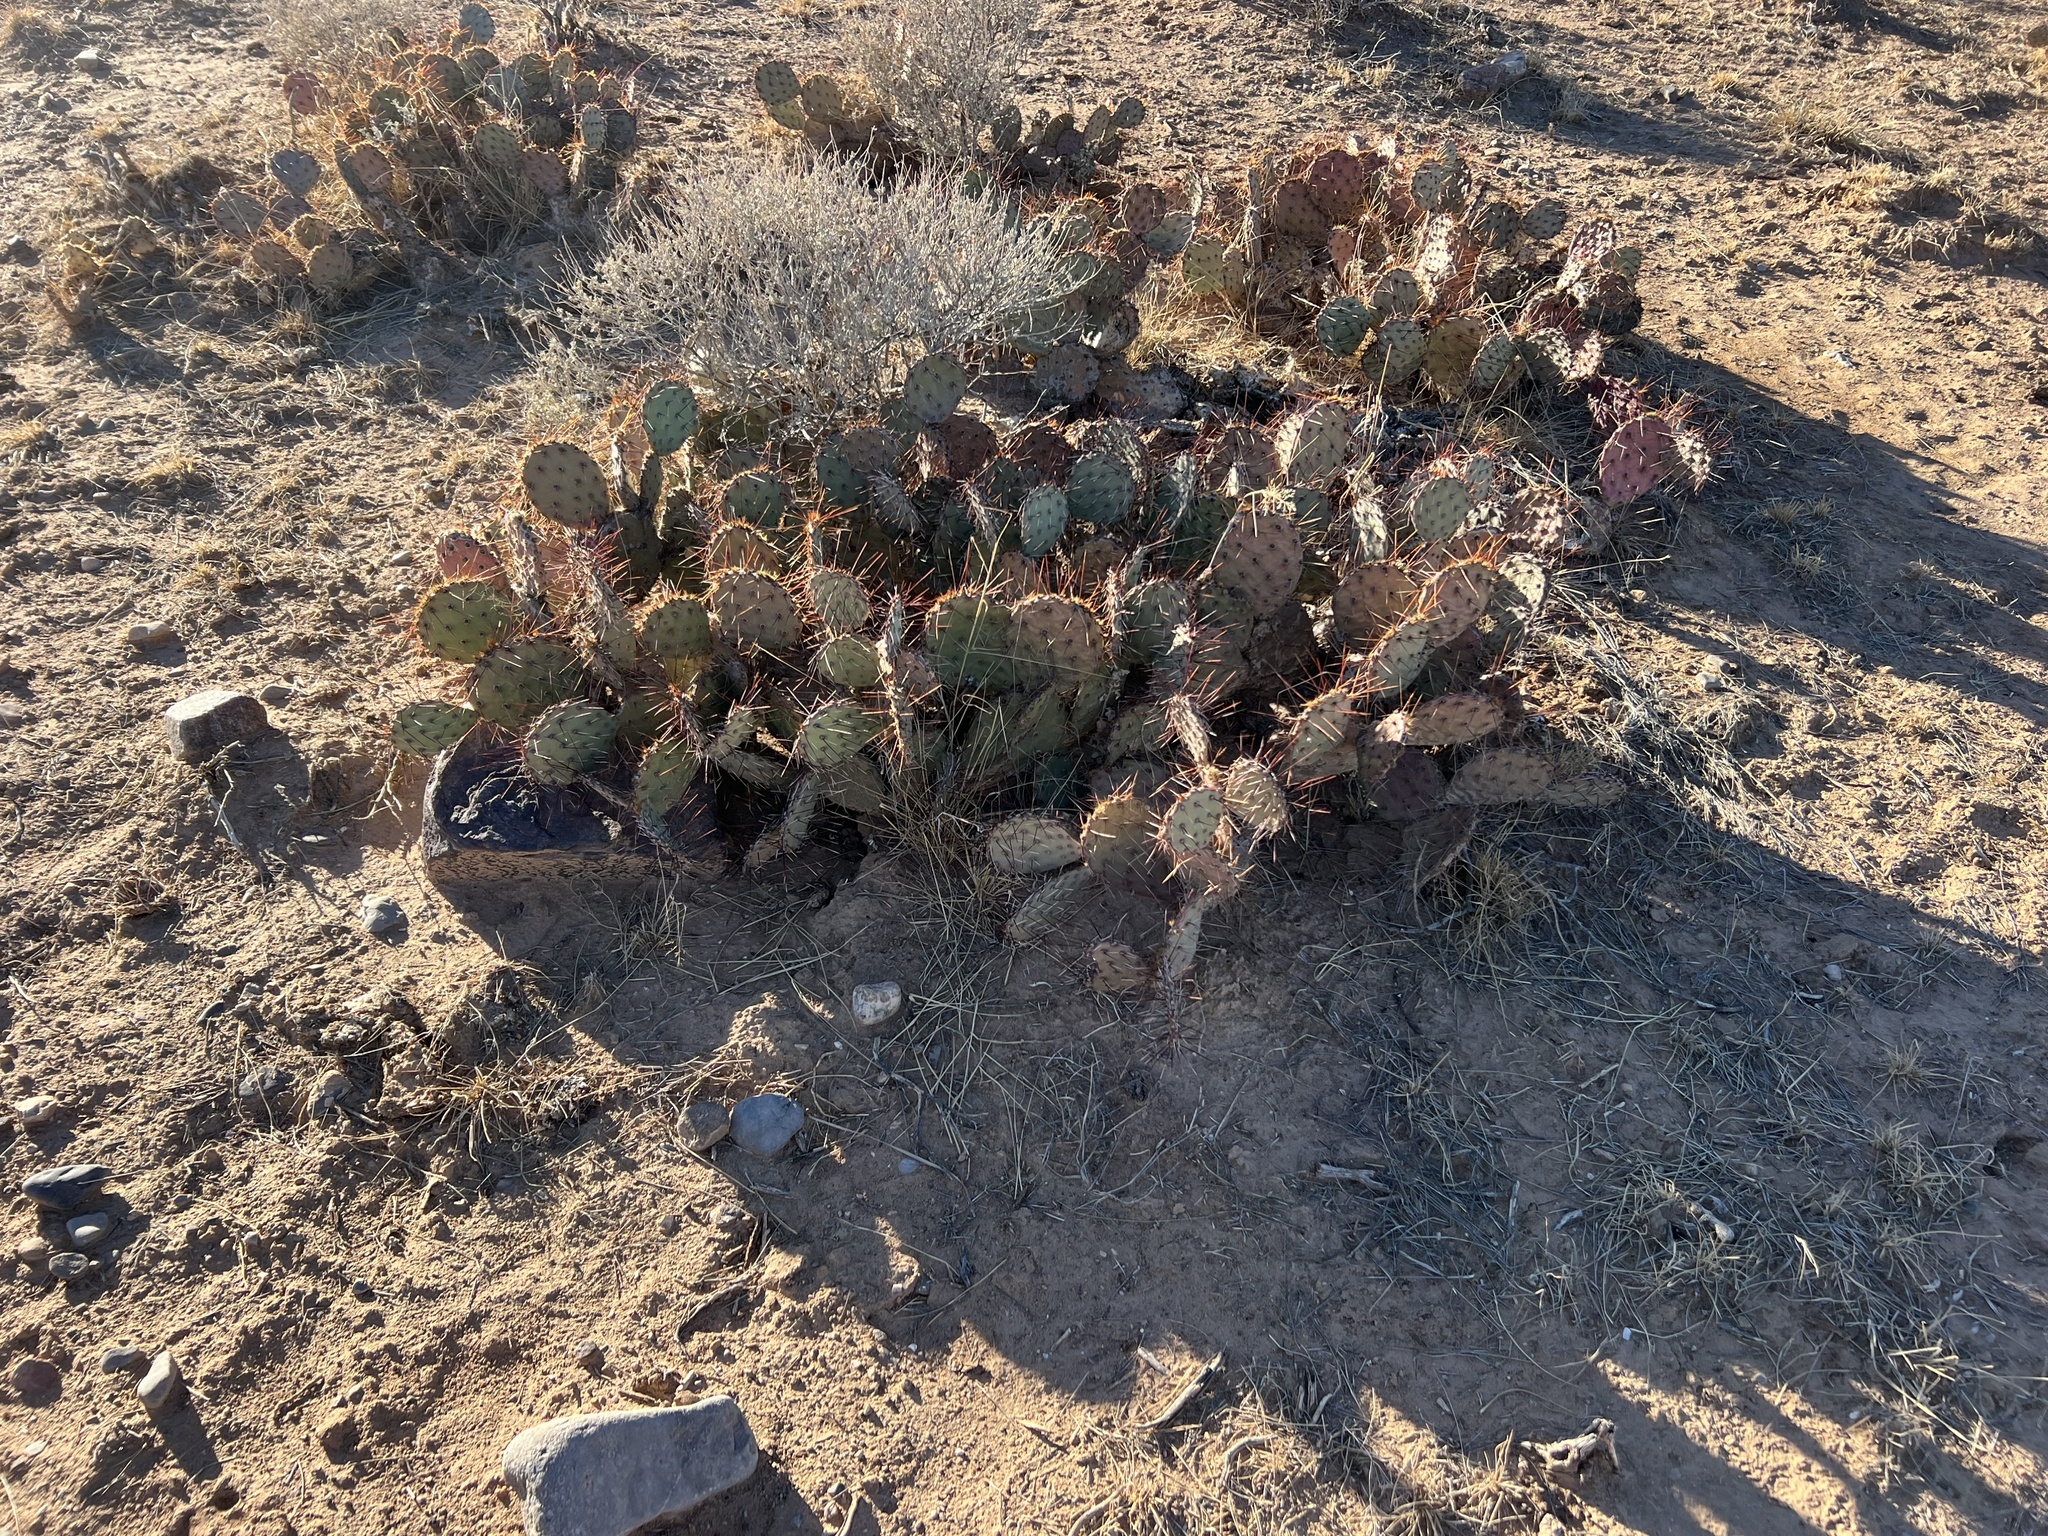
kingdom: Plantae
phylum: Tracheophyta
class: Magnoliopsida
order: Caryophyllales
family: Cactaceae
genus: Opuntia
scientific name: Opuntia phaeacantha
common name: New mexico prickly-pear
